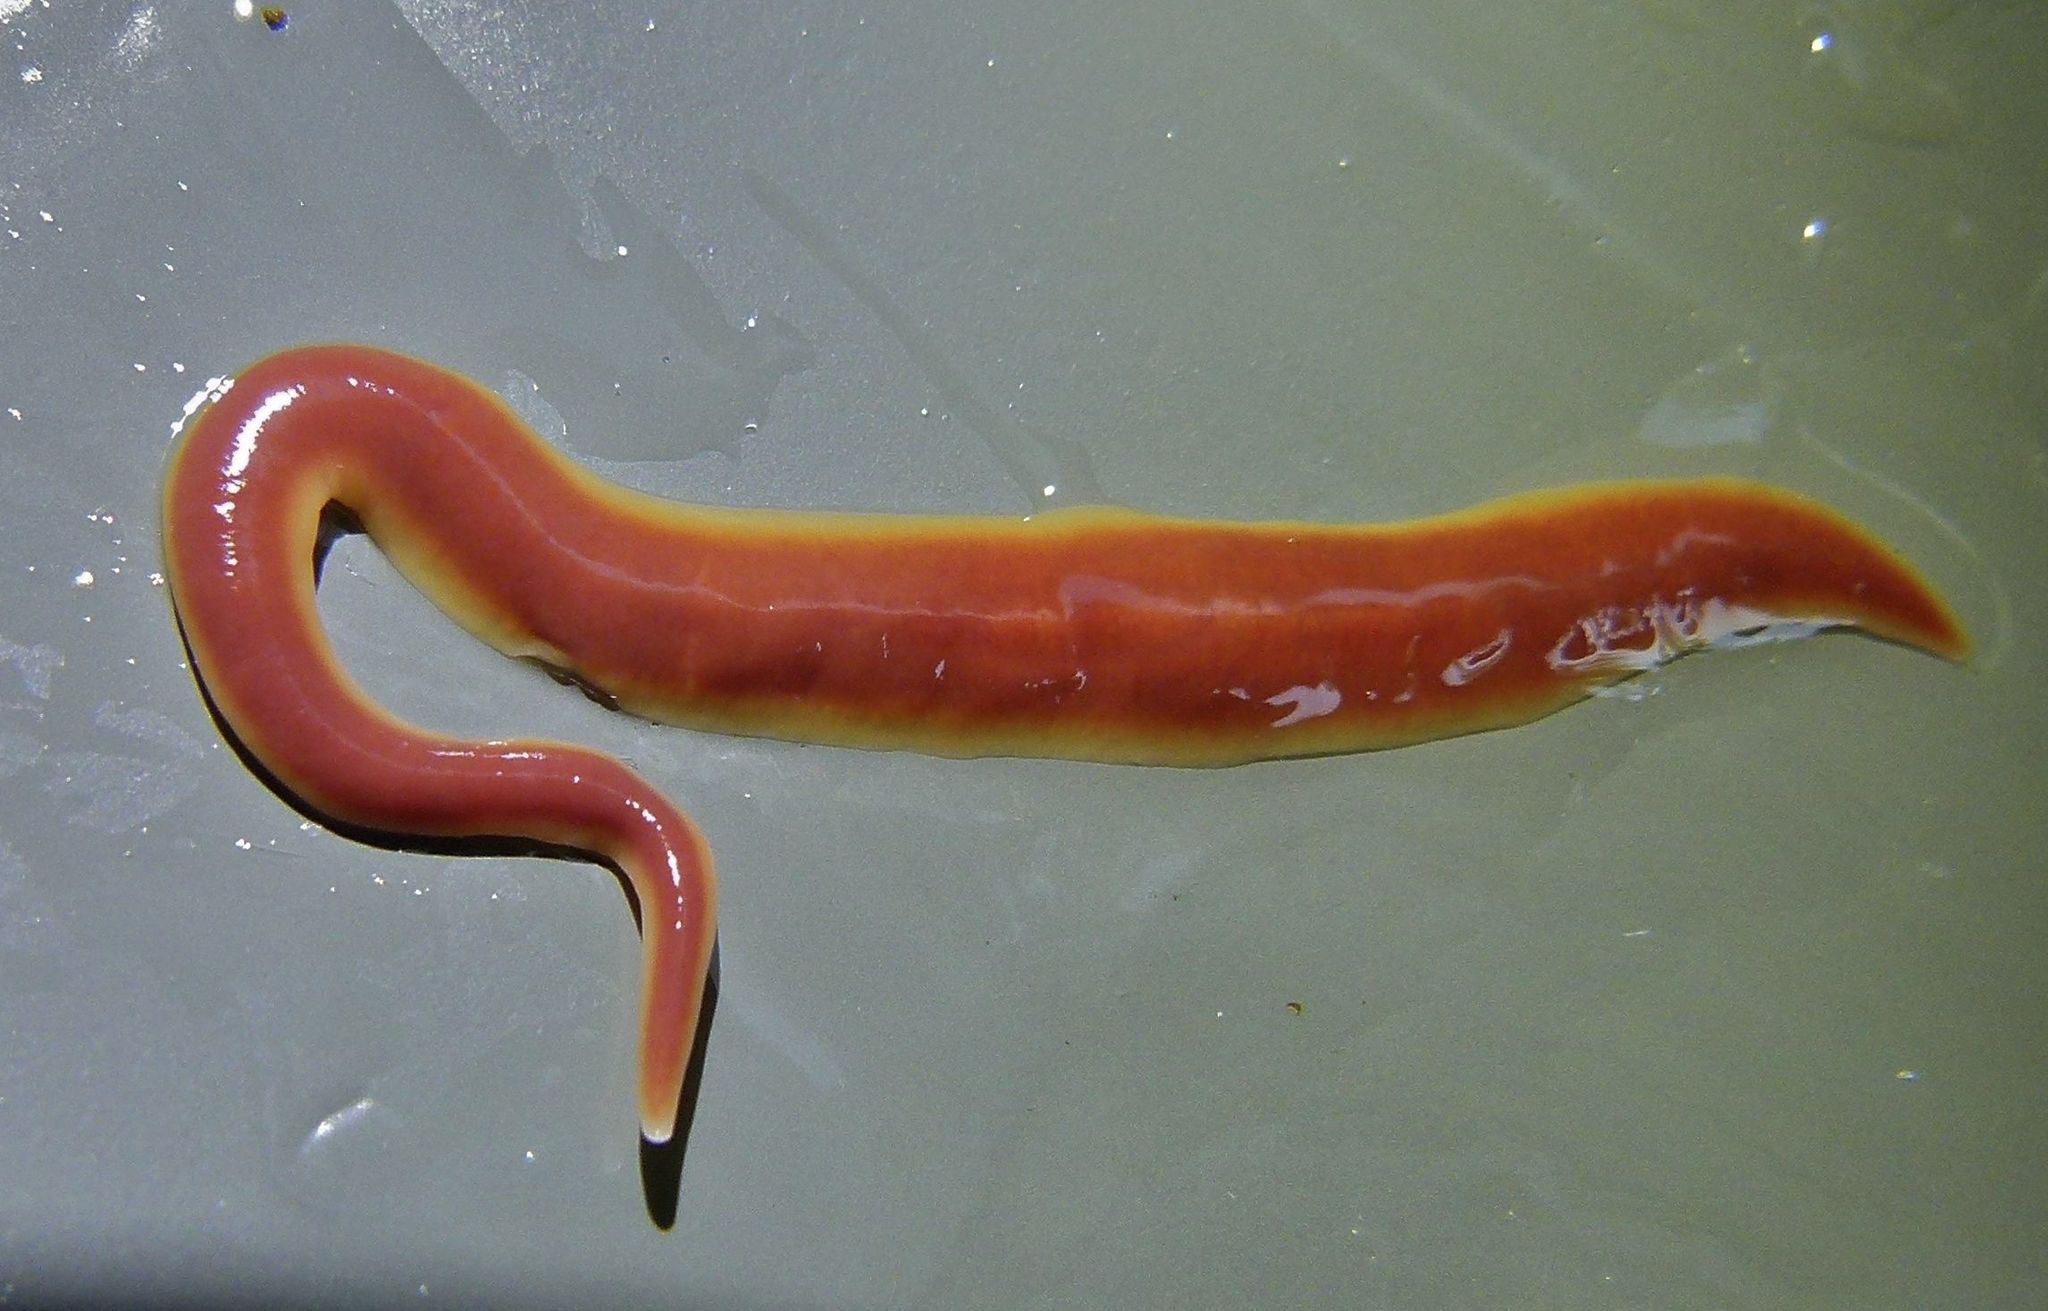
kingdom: Animalia
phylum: Platyhelminthes
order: Tricladida
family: Geoplanidae
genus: Arthurdendyus
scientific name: Arthurdendyus testaceus
